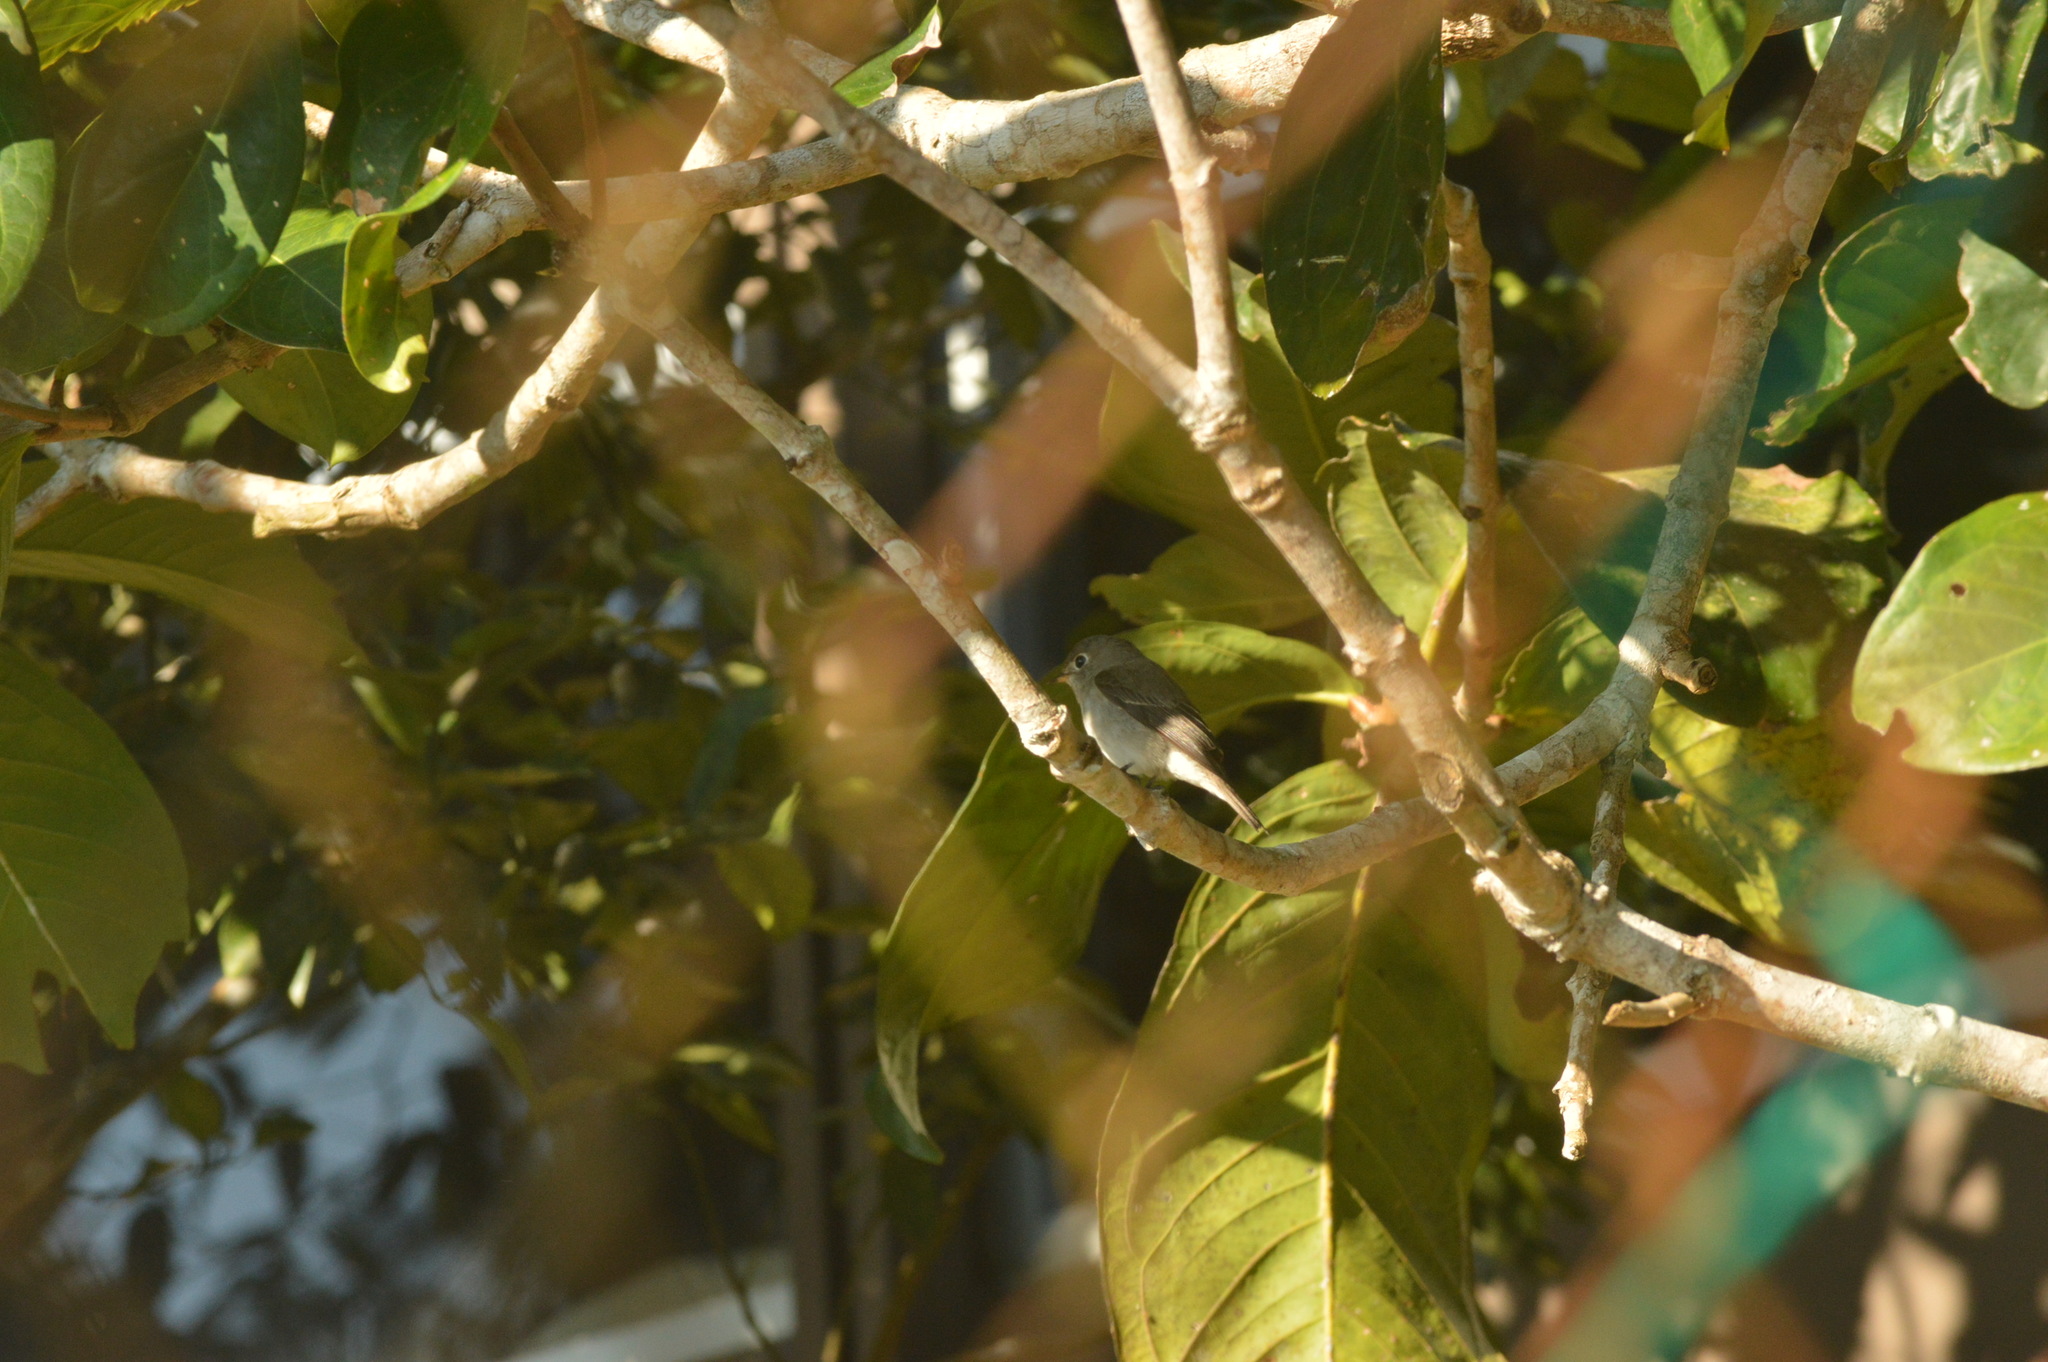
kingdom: Animalia
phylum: Chordata
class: Aves
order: Passeriformes
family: Muscicapidae
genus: Muscicapa
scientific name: Muscicapa latirostris
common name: Asian brown flycatcher
